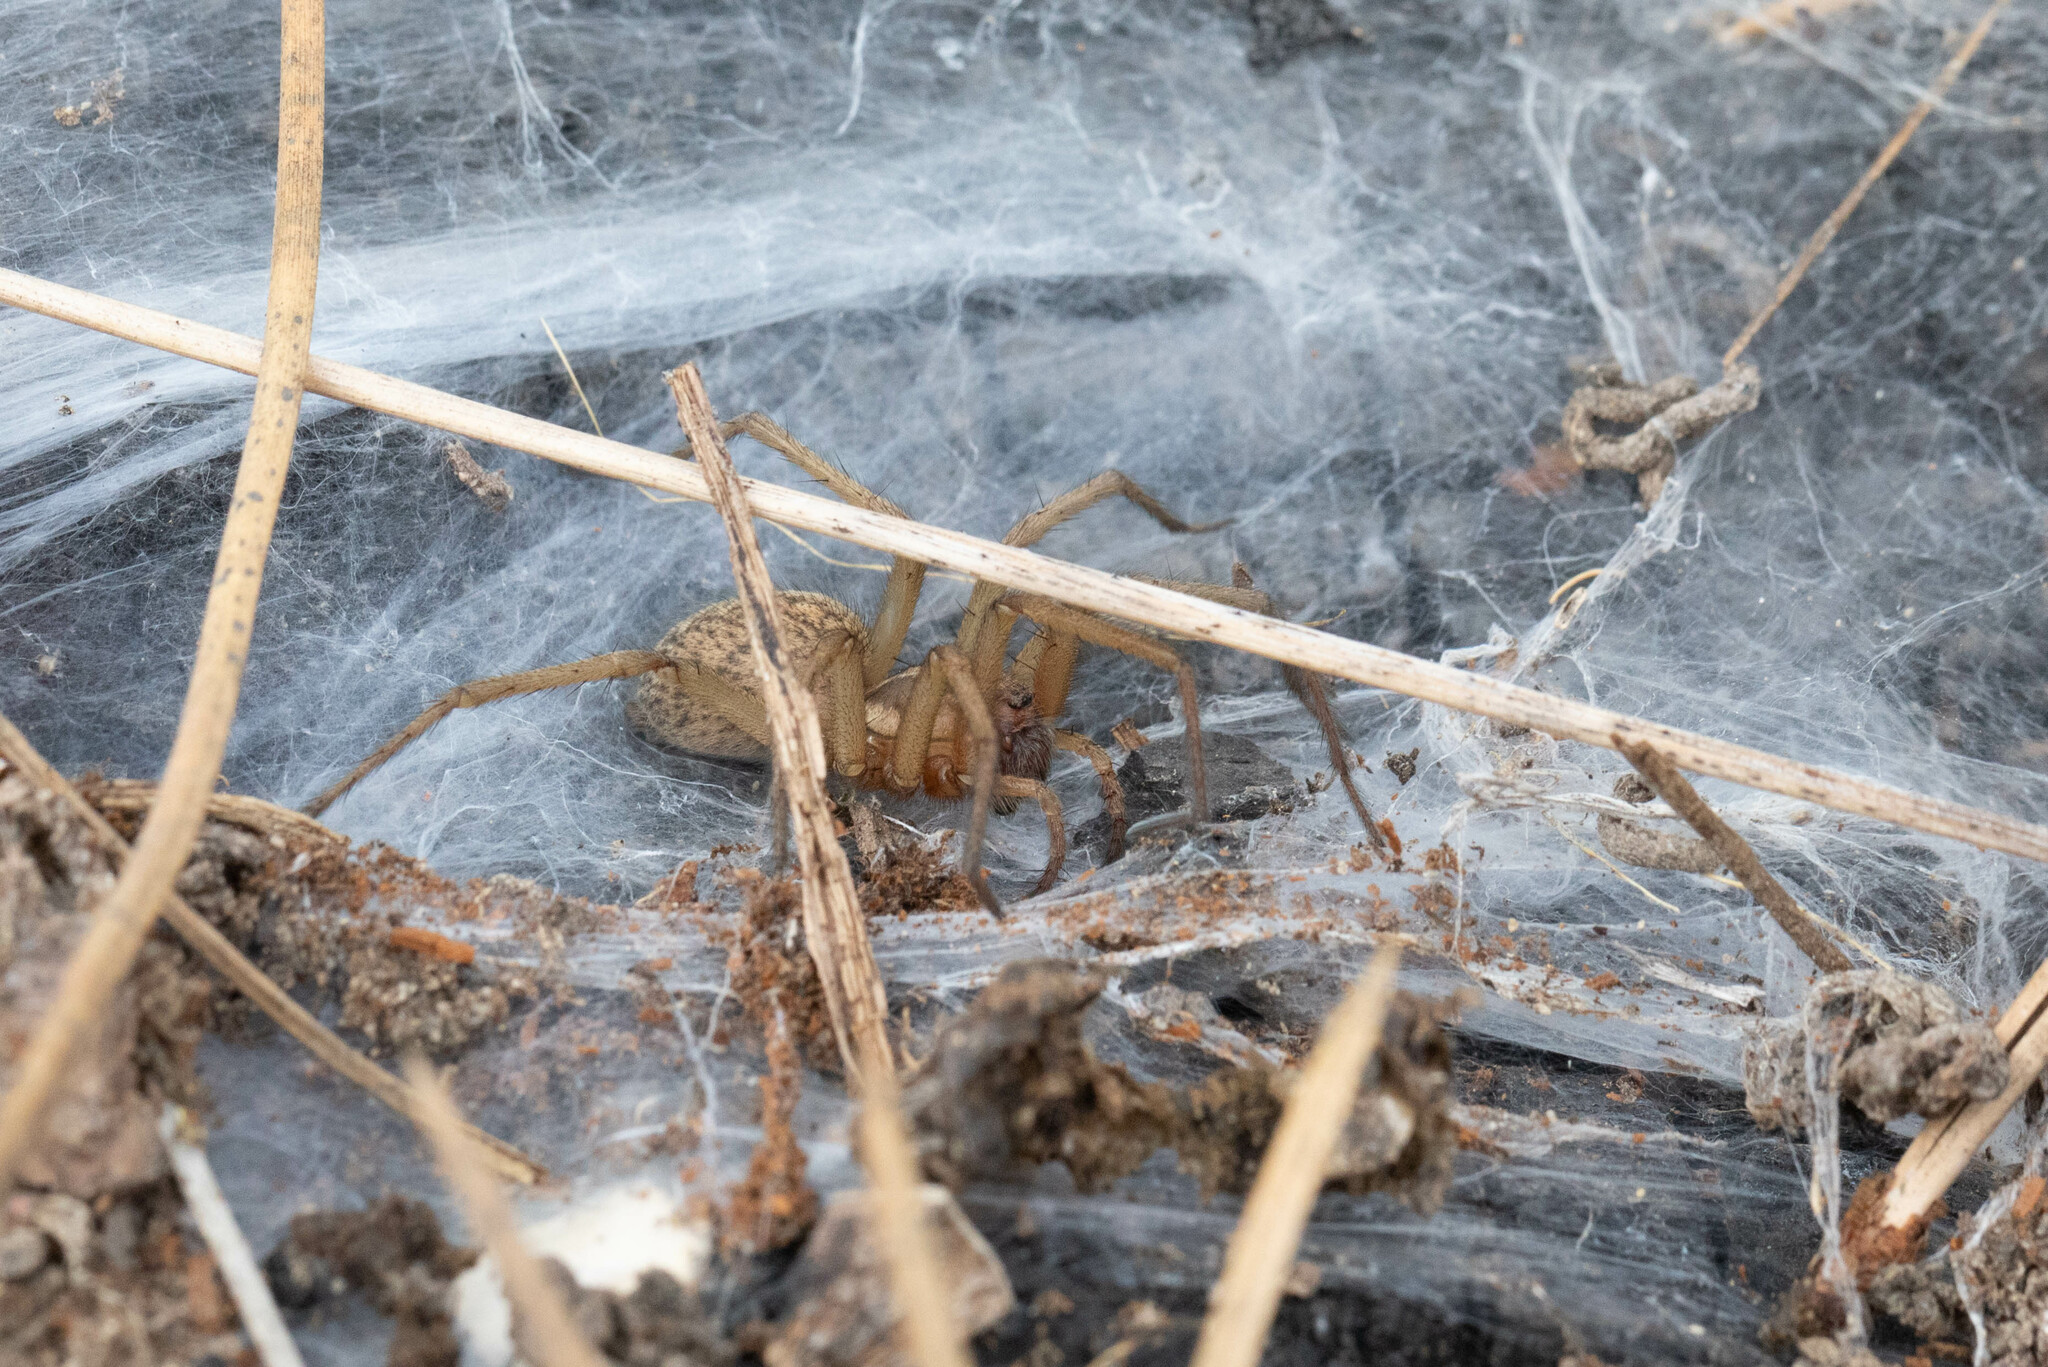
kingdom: Animalia
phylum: Arthropoda
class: Arachnida
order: Araneae
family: Agelenidae
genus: Eratigena
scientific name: Eratigena agrestis
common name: Hobo spider
